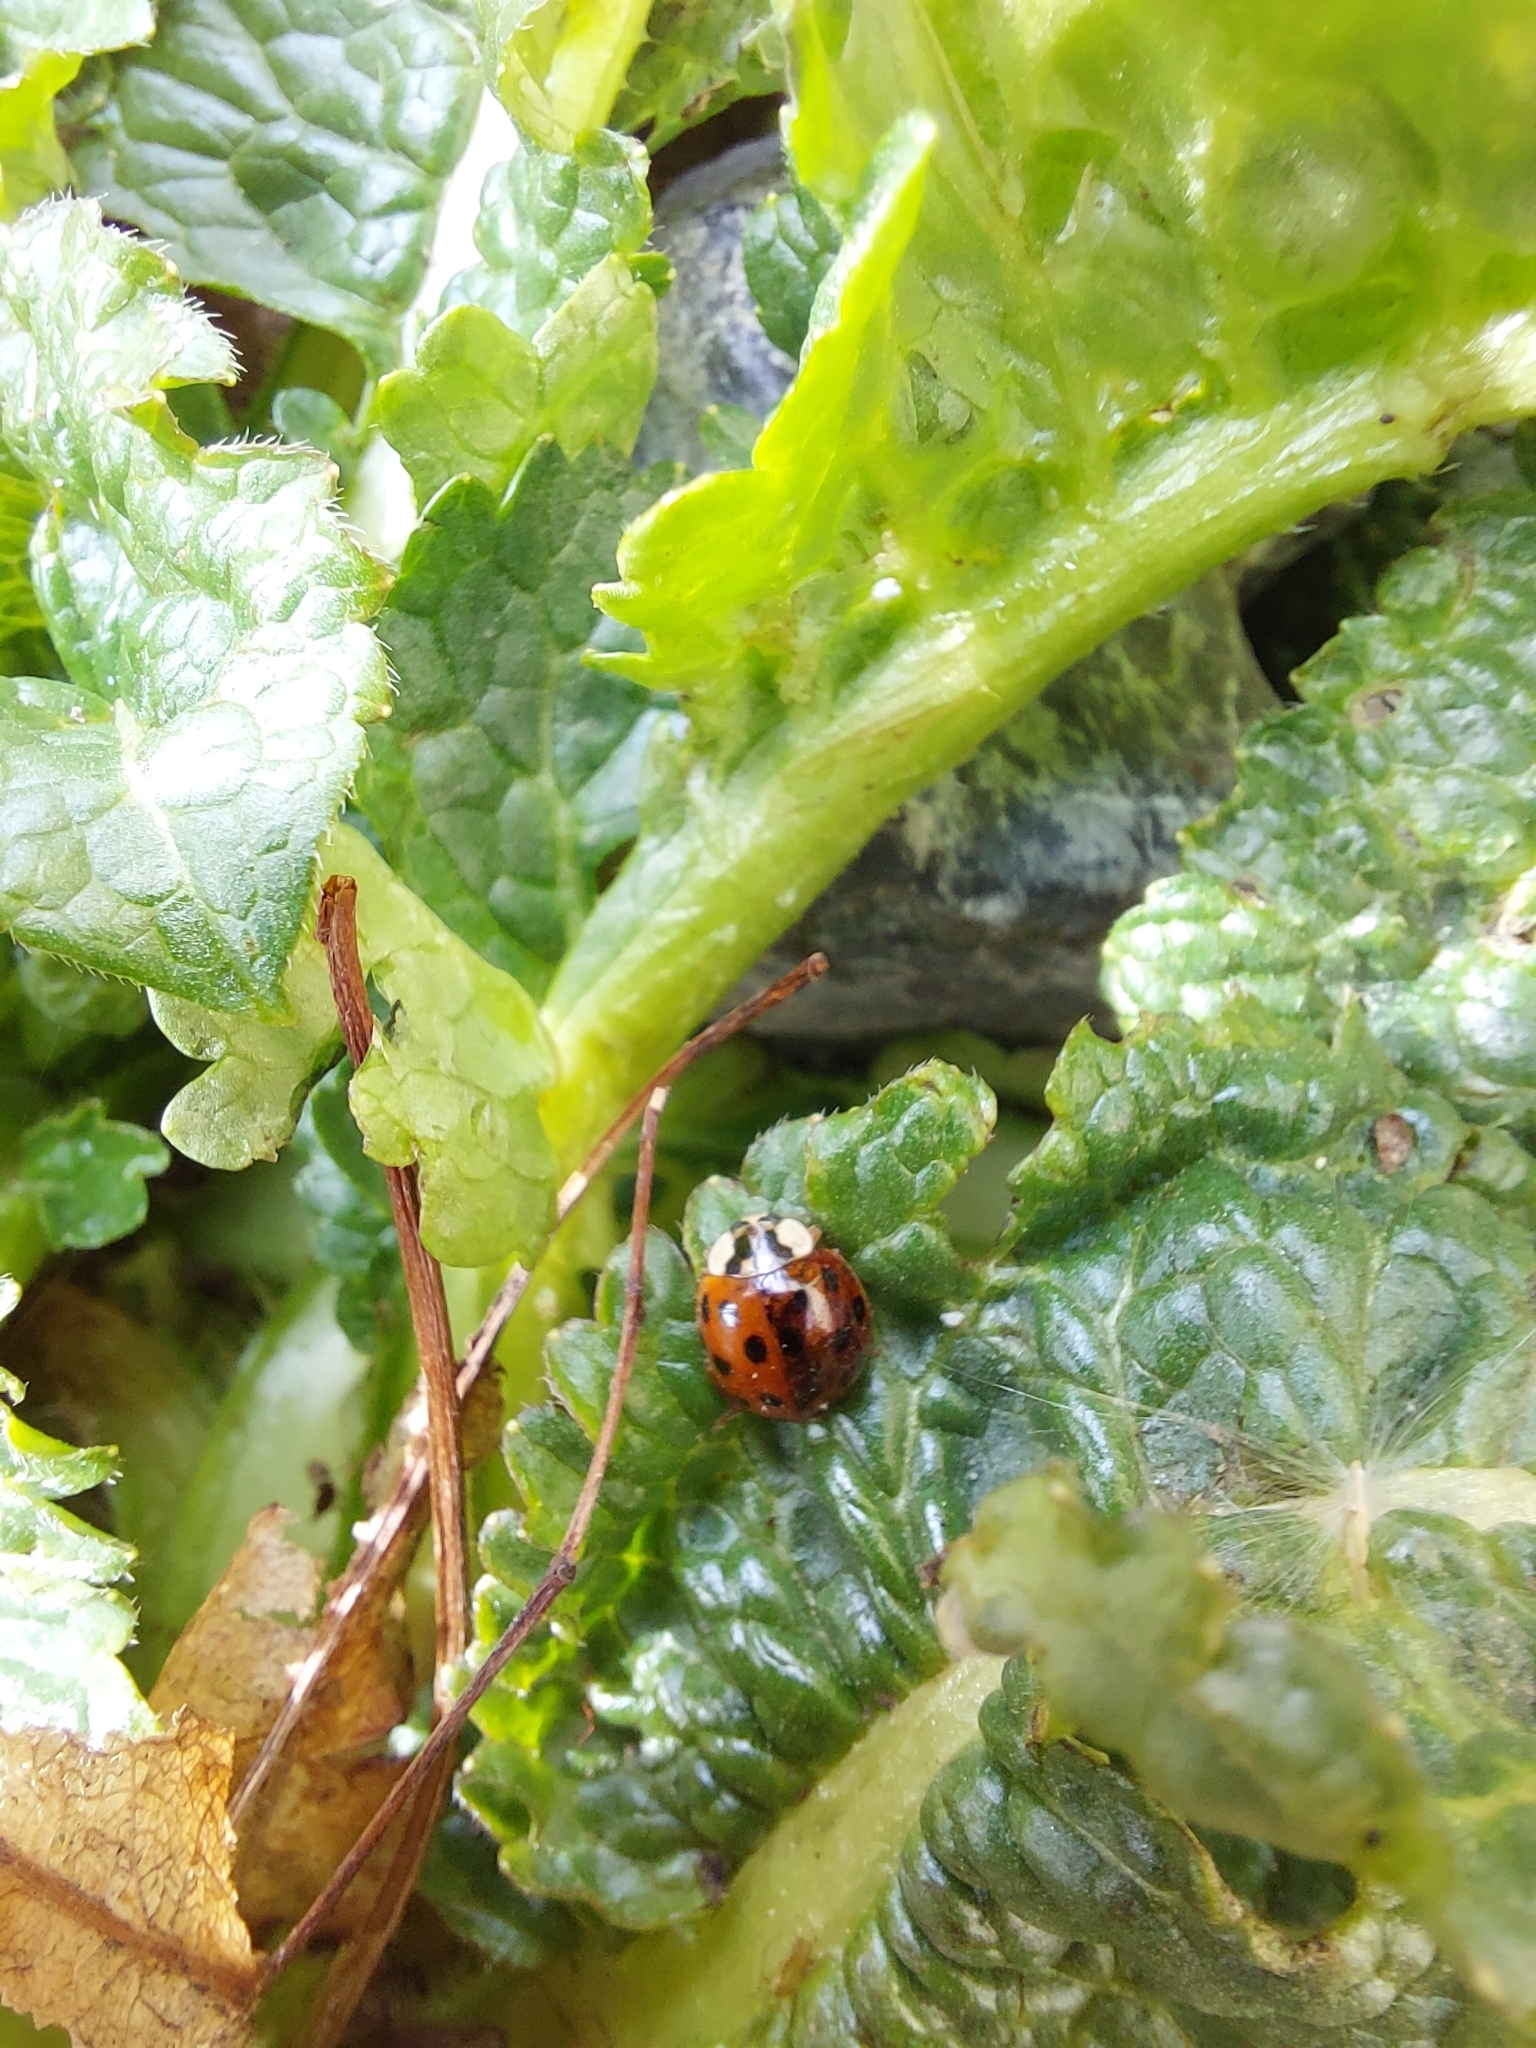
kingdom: Animalia
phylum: Arthropoda
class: Insecta
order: Coleoptera
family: Coccinellidae
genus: Harmonia
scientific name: Harmonia axyridis
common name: Harlequin ladybird
